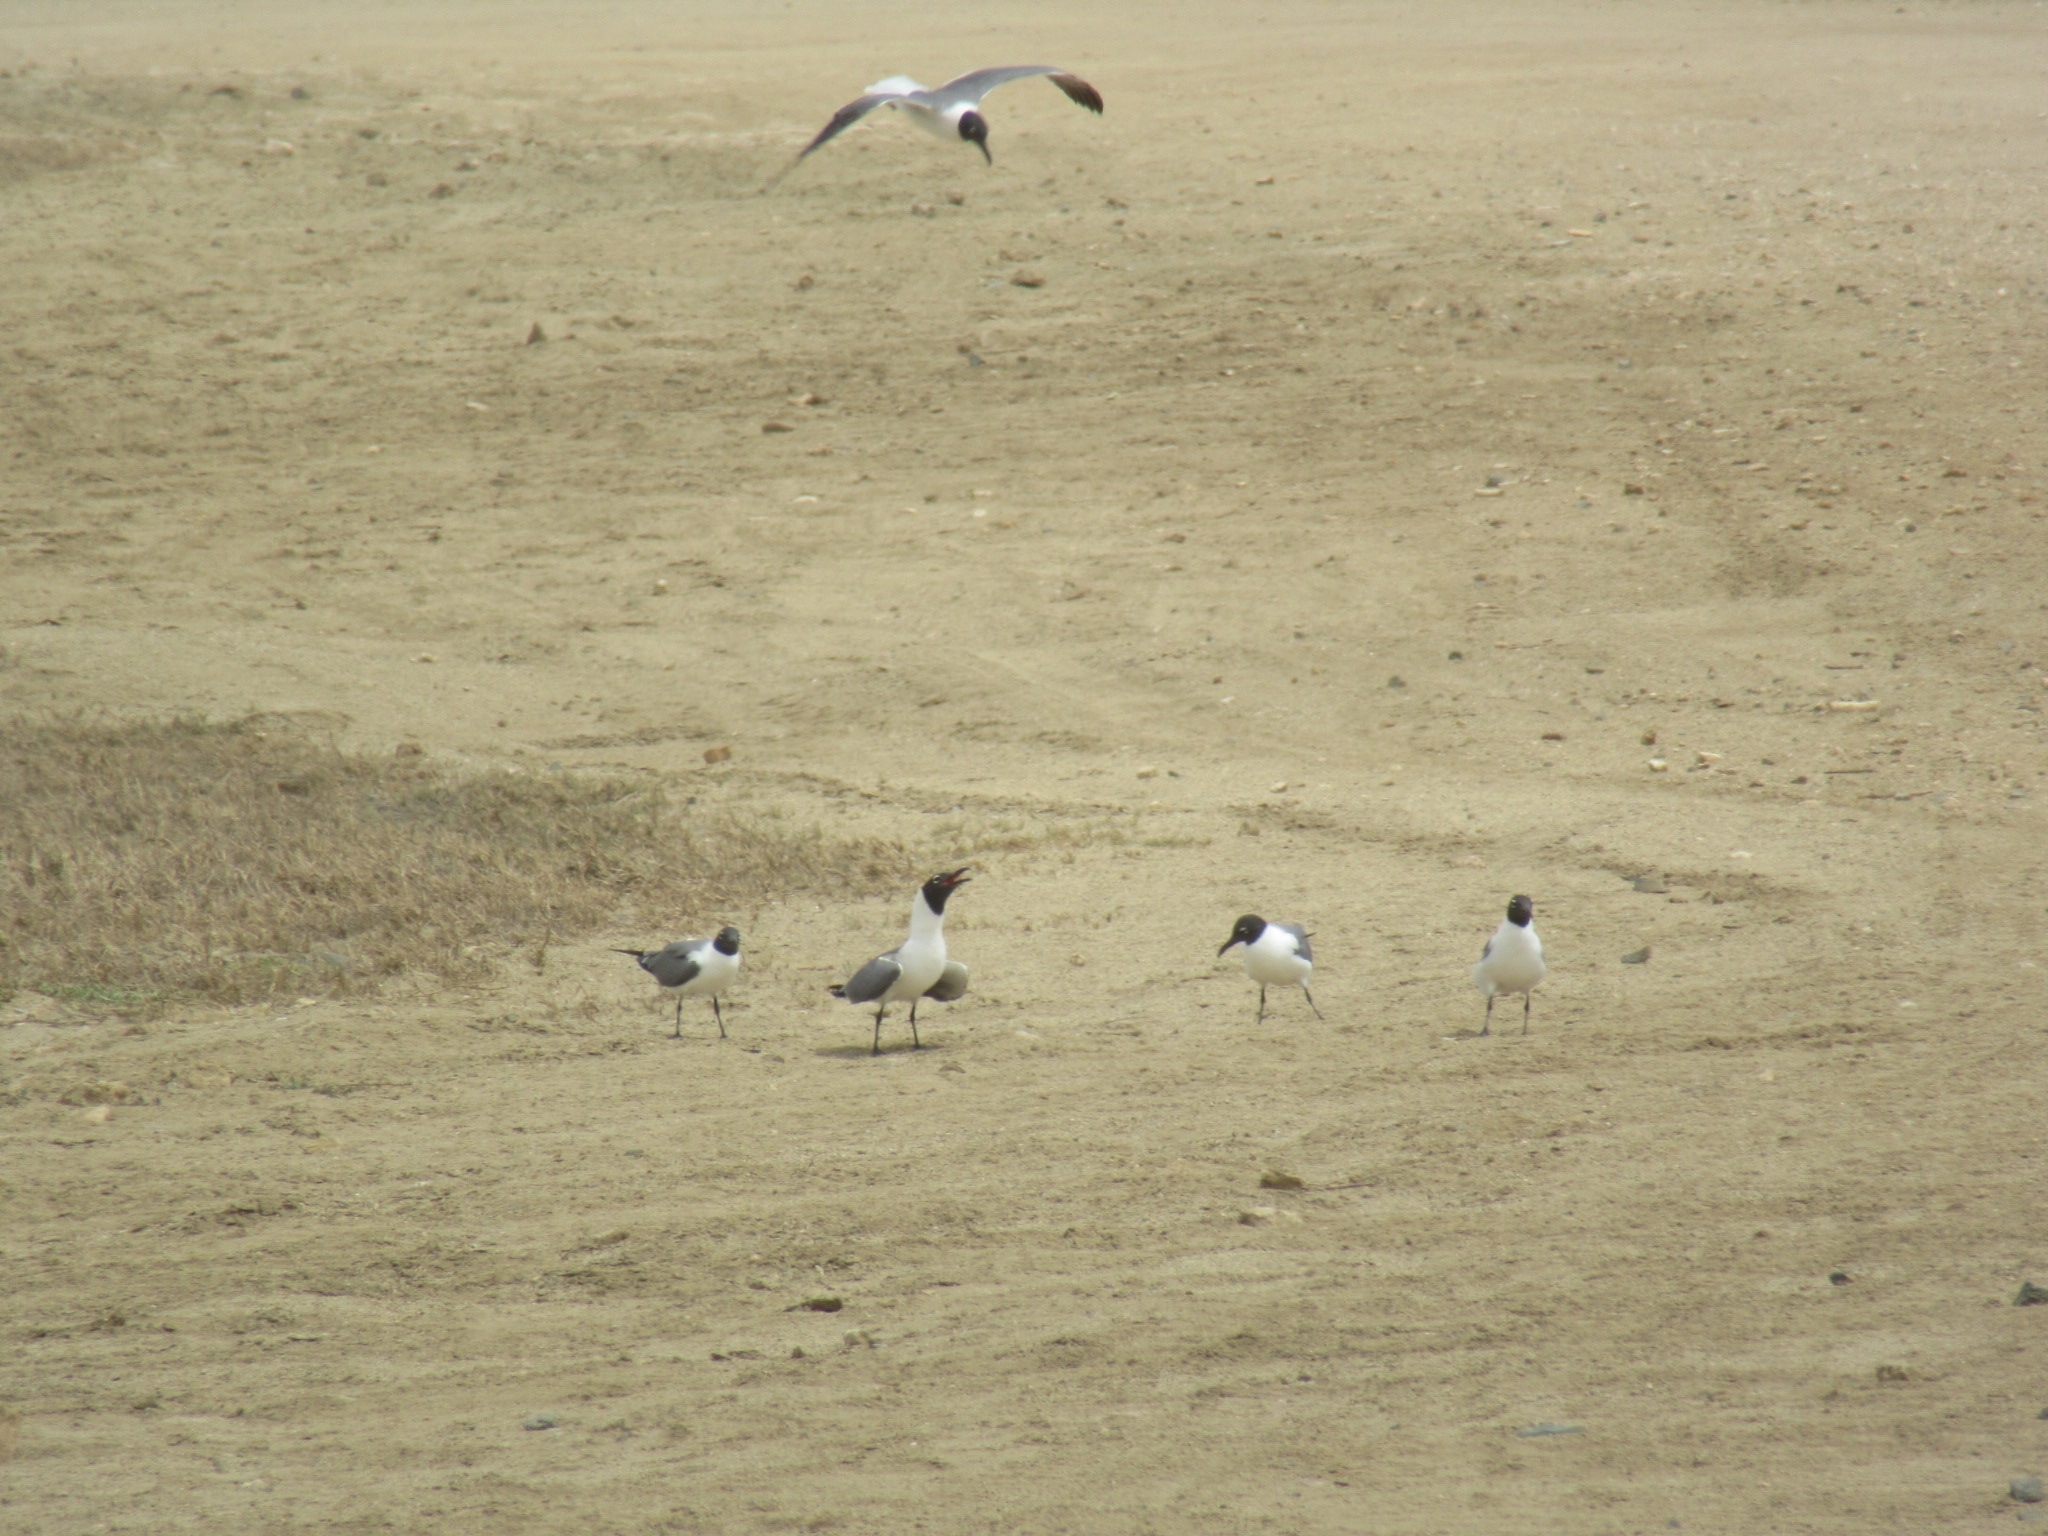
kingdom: Animalia
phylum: Chordata
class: Aves
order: Charadriiformes
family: Laridae
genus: Leucophaeus
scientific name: Leucophaeus atricilla
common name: Laughing gull
